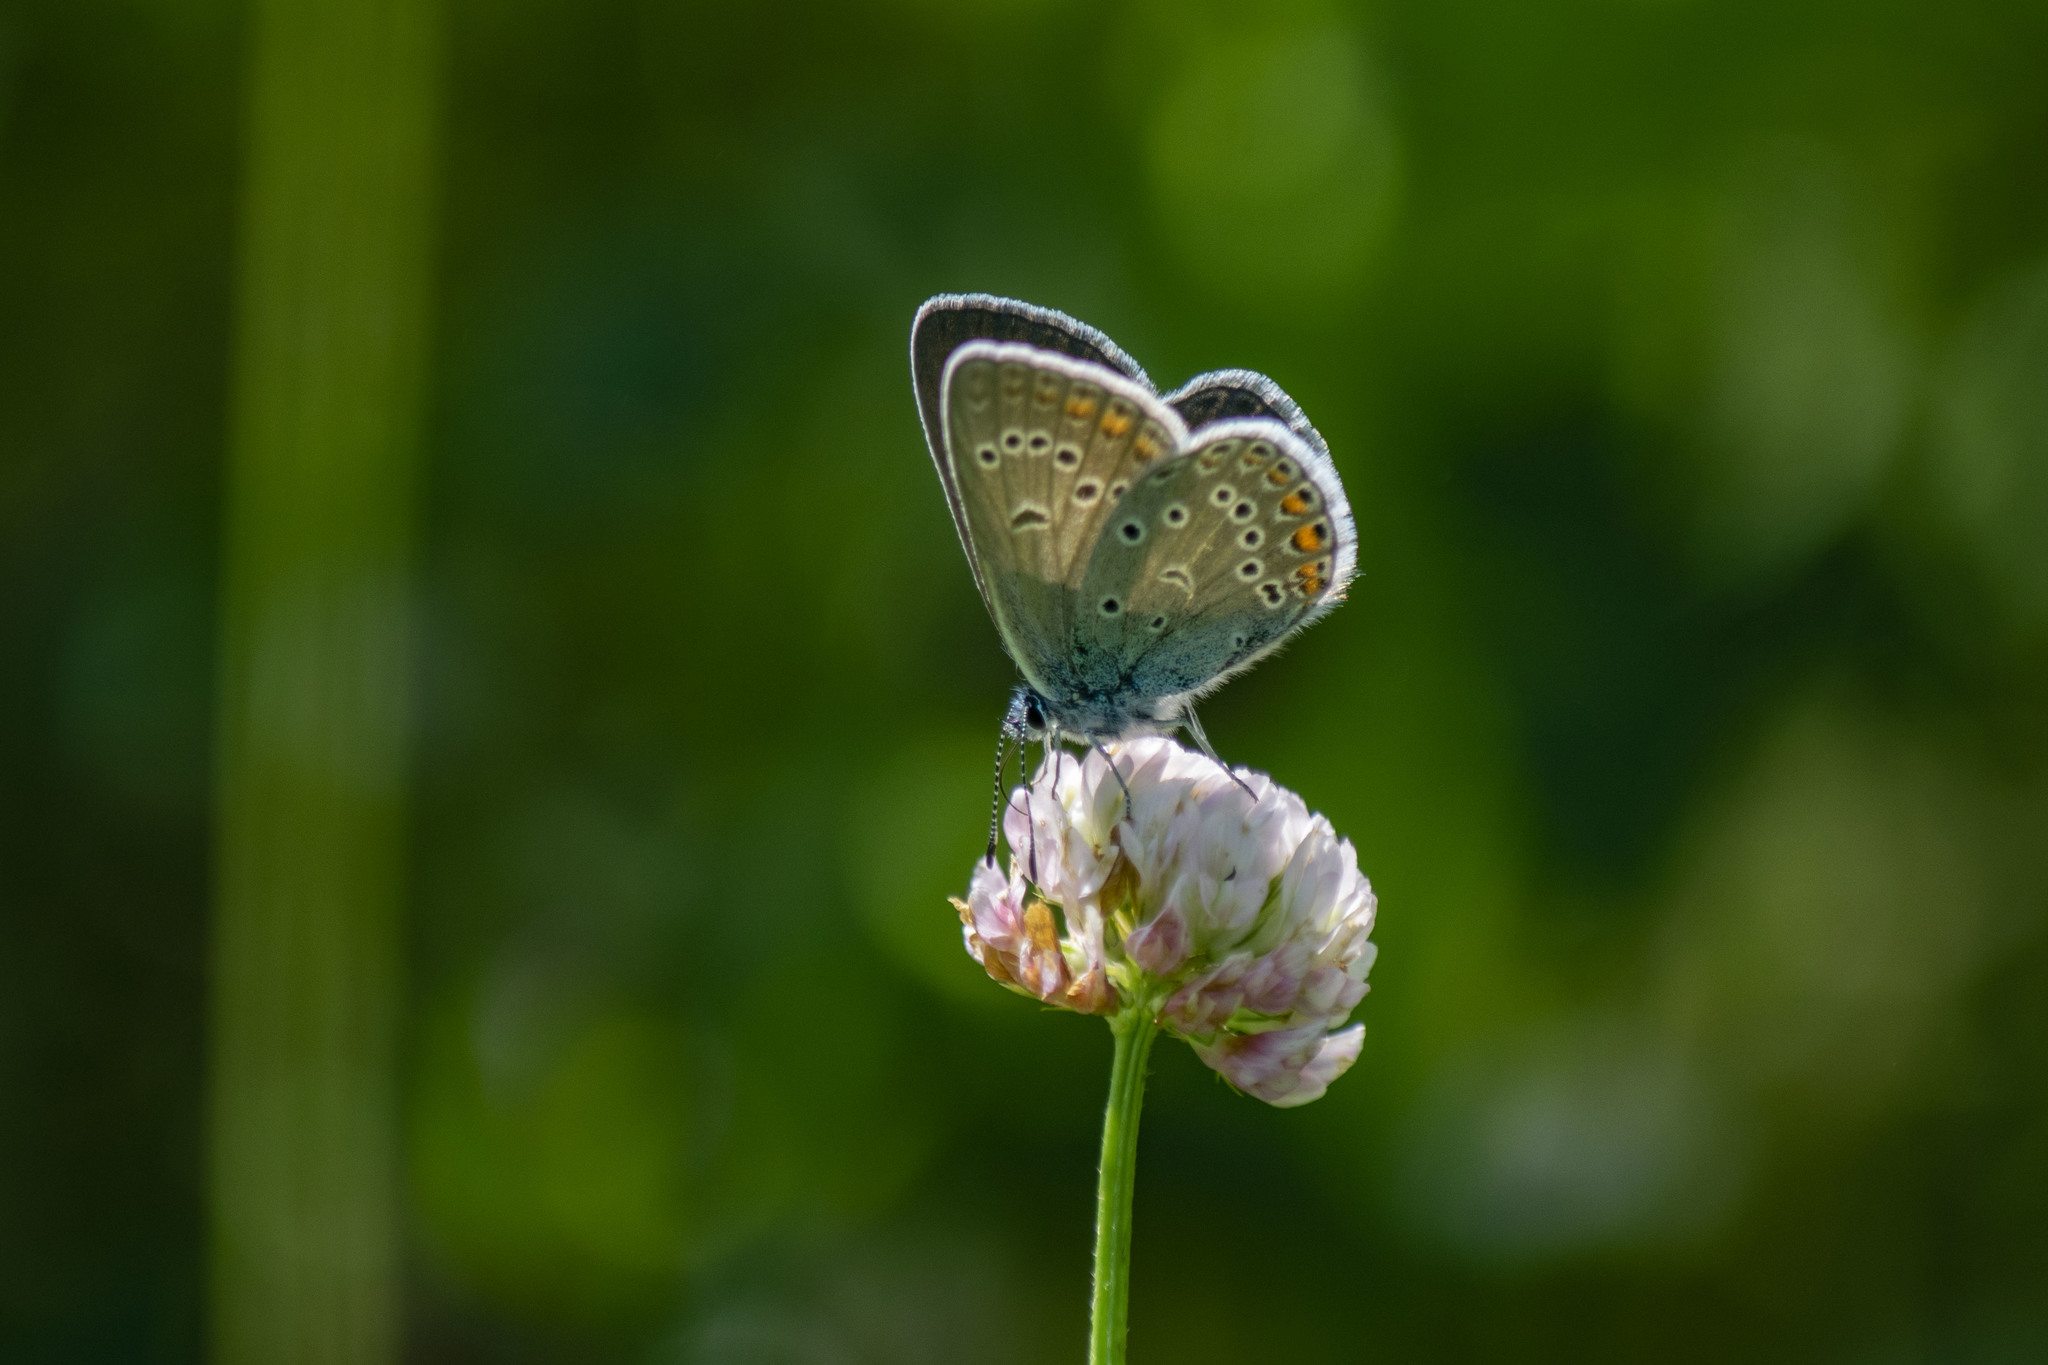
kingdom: Animalia
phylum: Arthropoda
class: Insecta
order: Lepidoptera
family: Lycaenidae
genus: Plebejus
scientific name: Plebejus amanda
